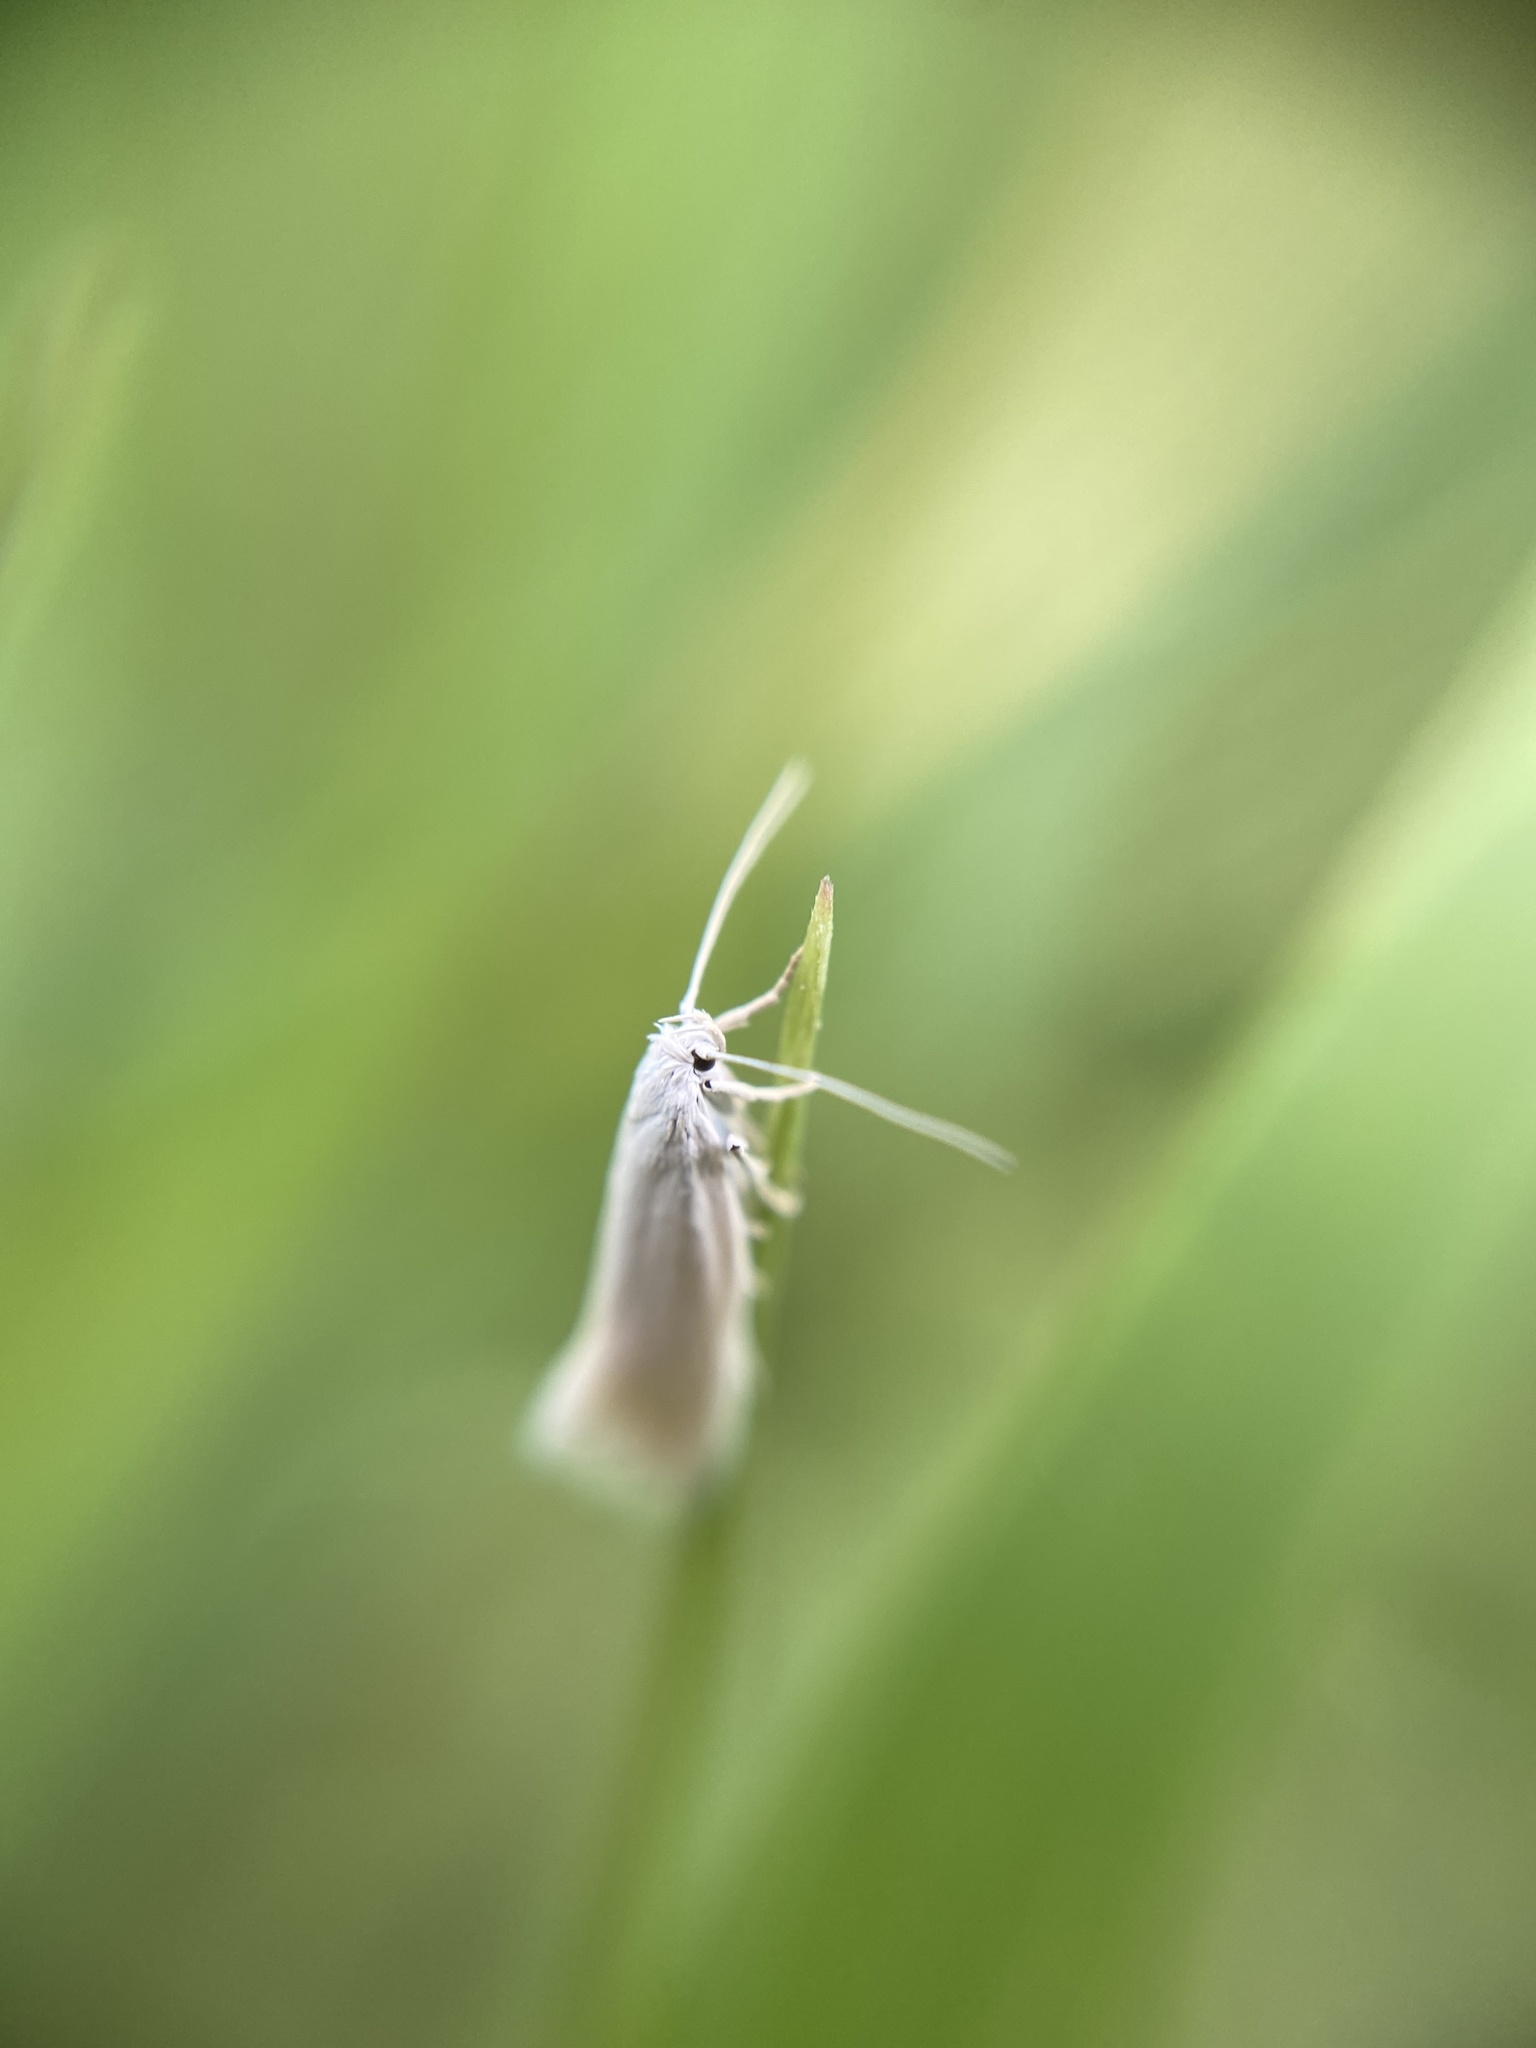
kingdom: Animalia
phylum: Arthropoda
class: Insecta
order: Lepidoptera
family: Elachistidae
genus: Elachista
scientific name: Elachista argentella
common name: Swan-feather dwarf
